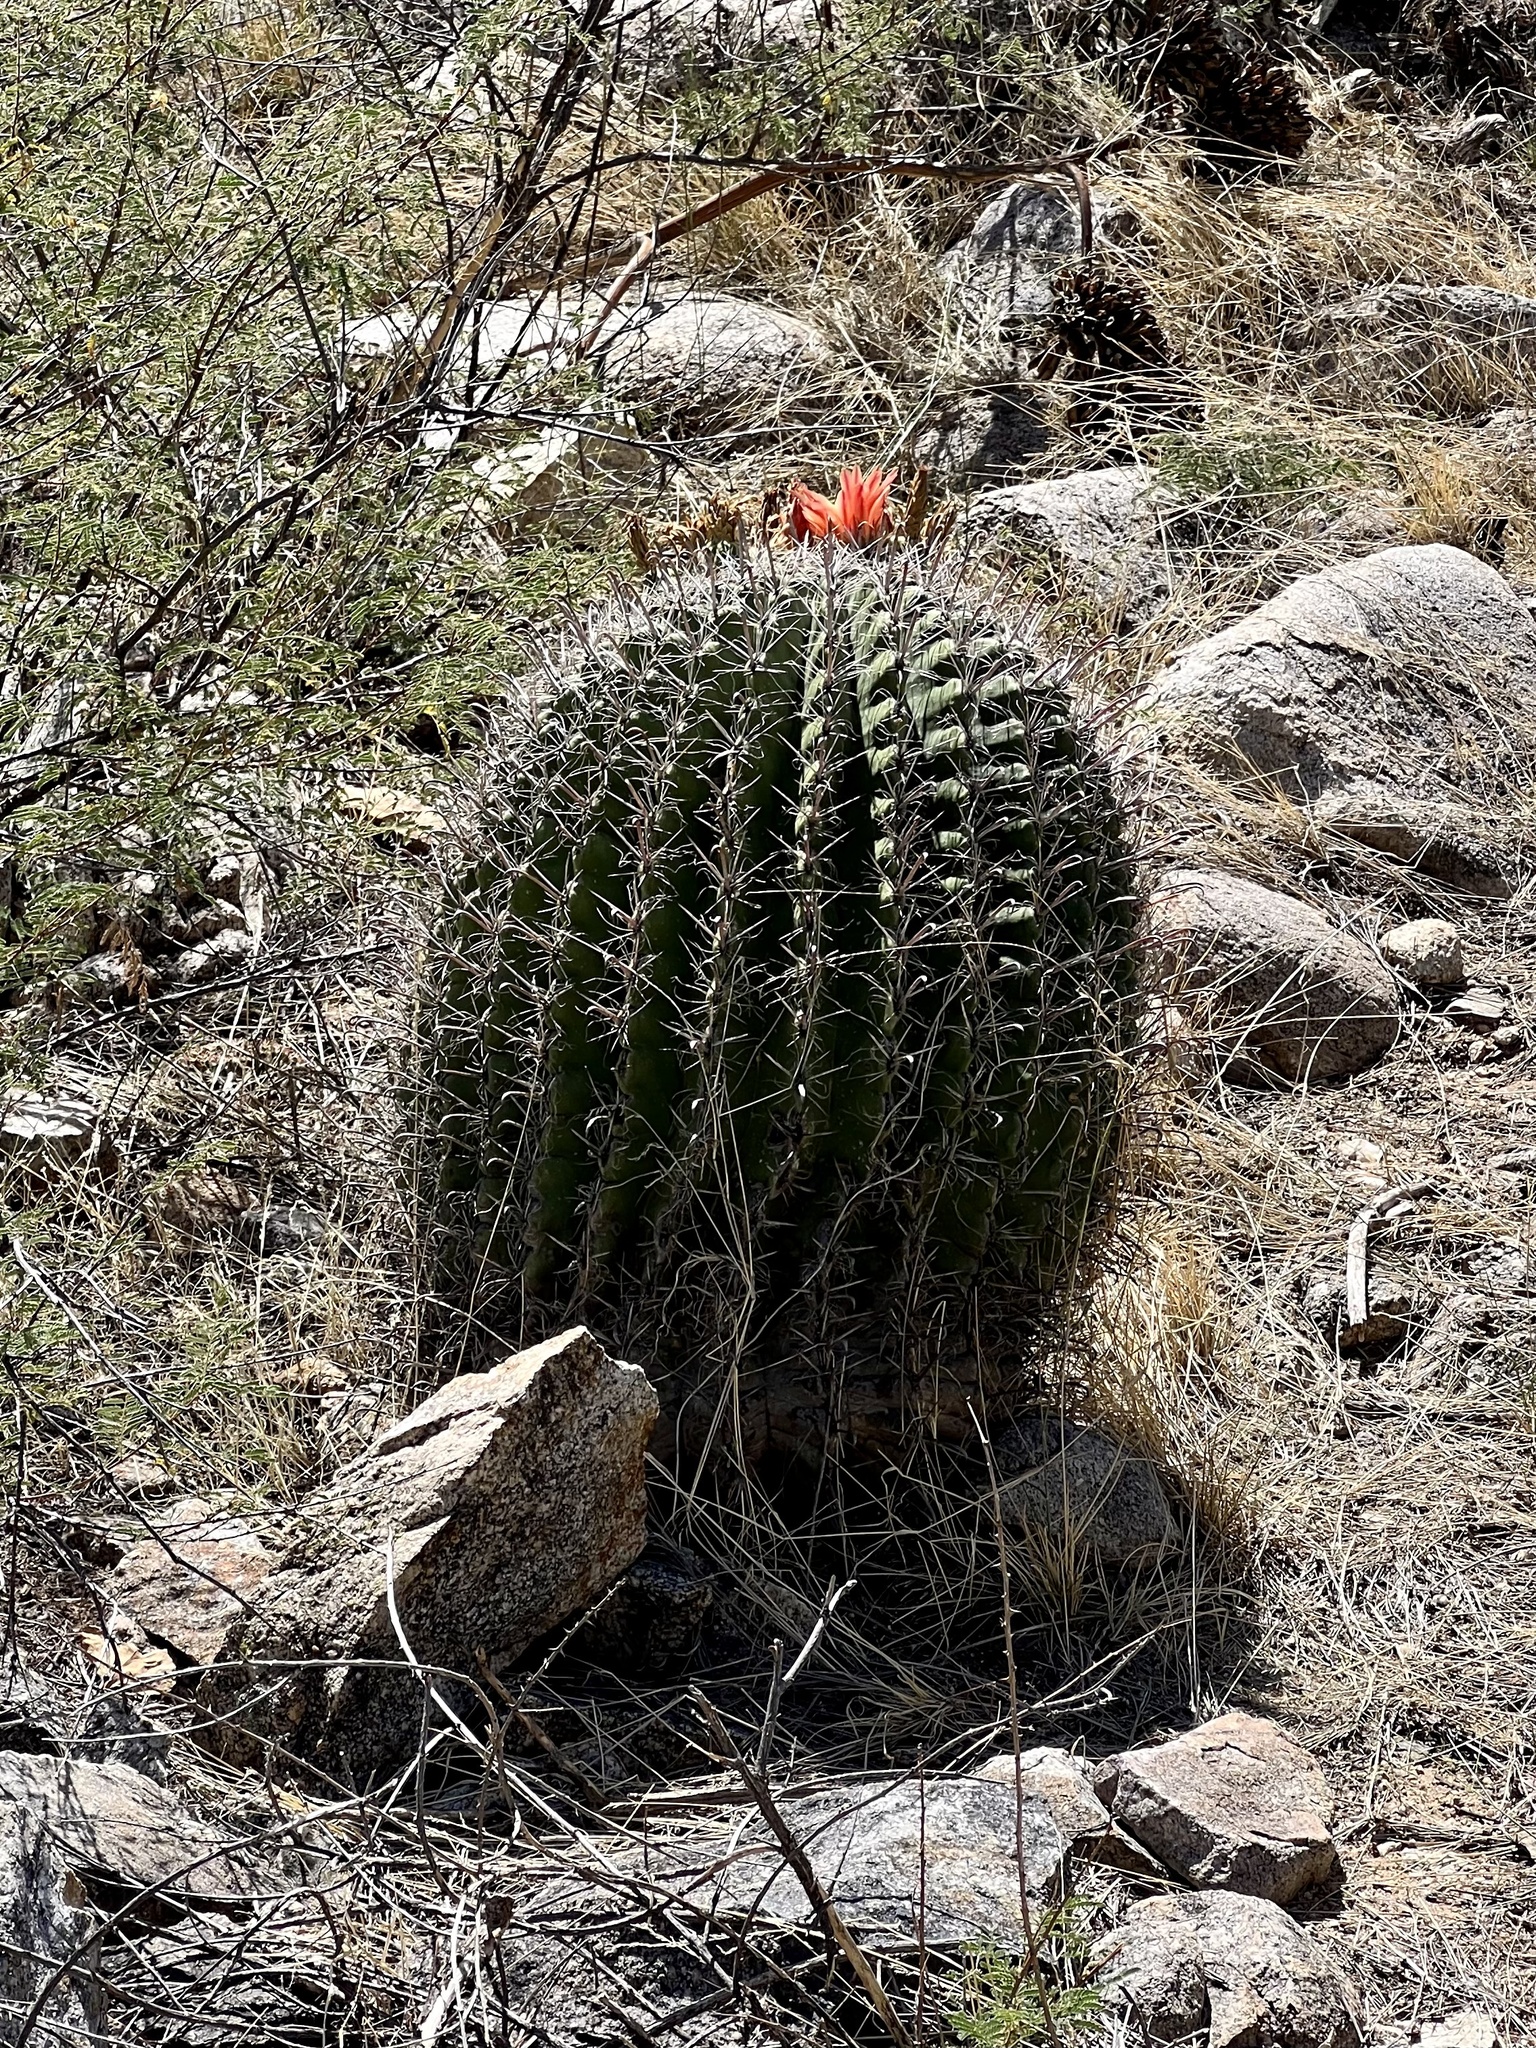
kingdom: Plantae
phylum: Tracheophyta
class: Magnoliopsida
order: Caryophyllales
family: Cactaceae
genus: Ferocactus
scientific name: Ferocactus wislizeni
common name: Candy barrel cactus
